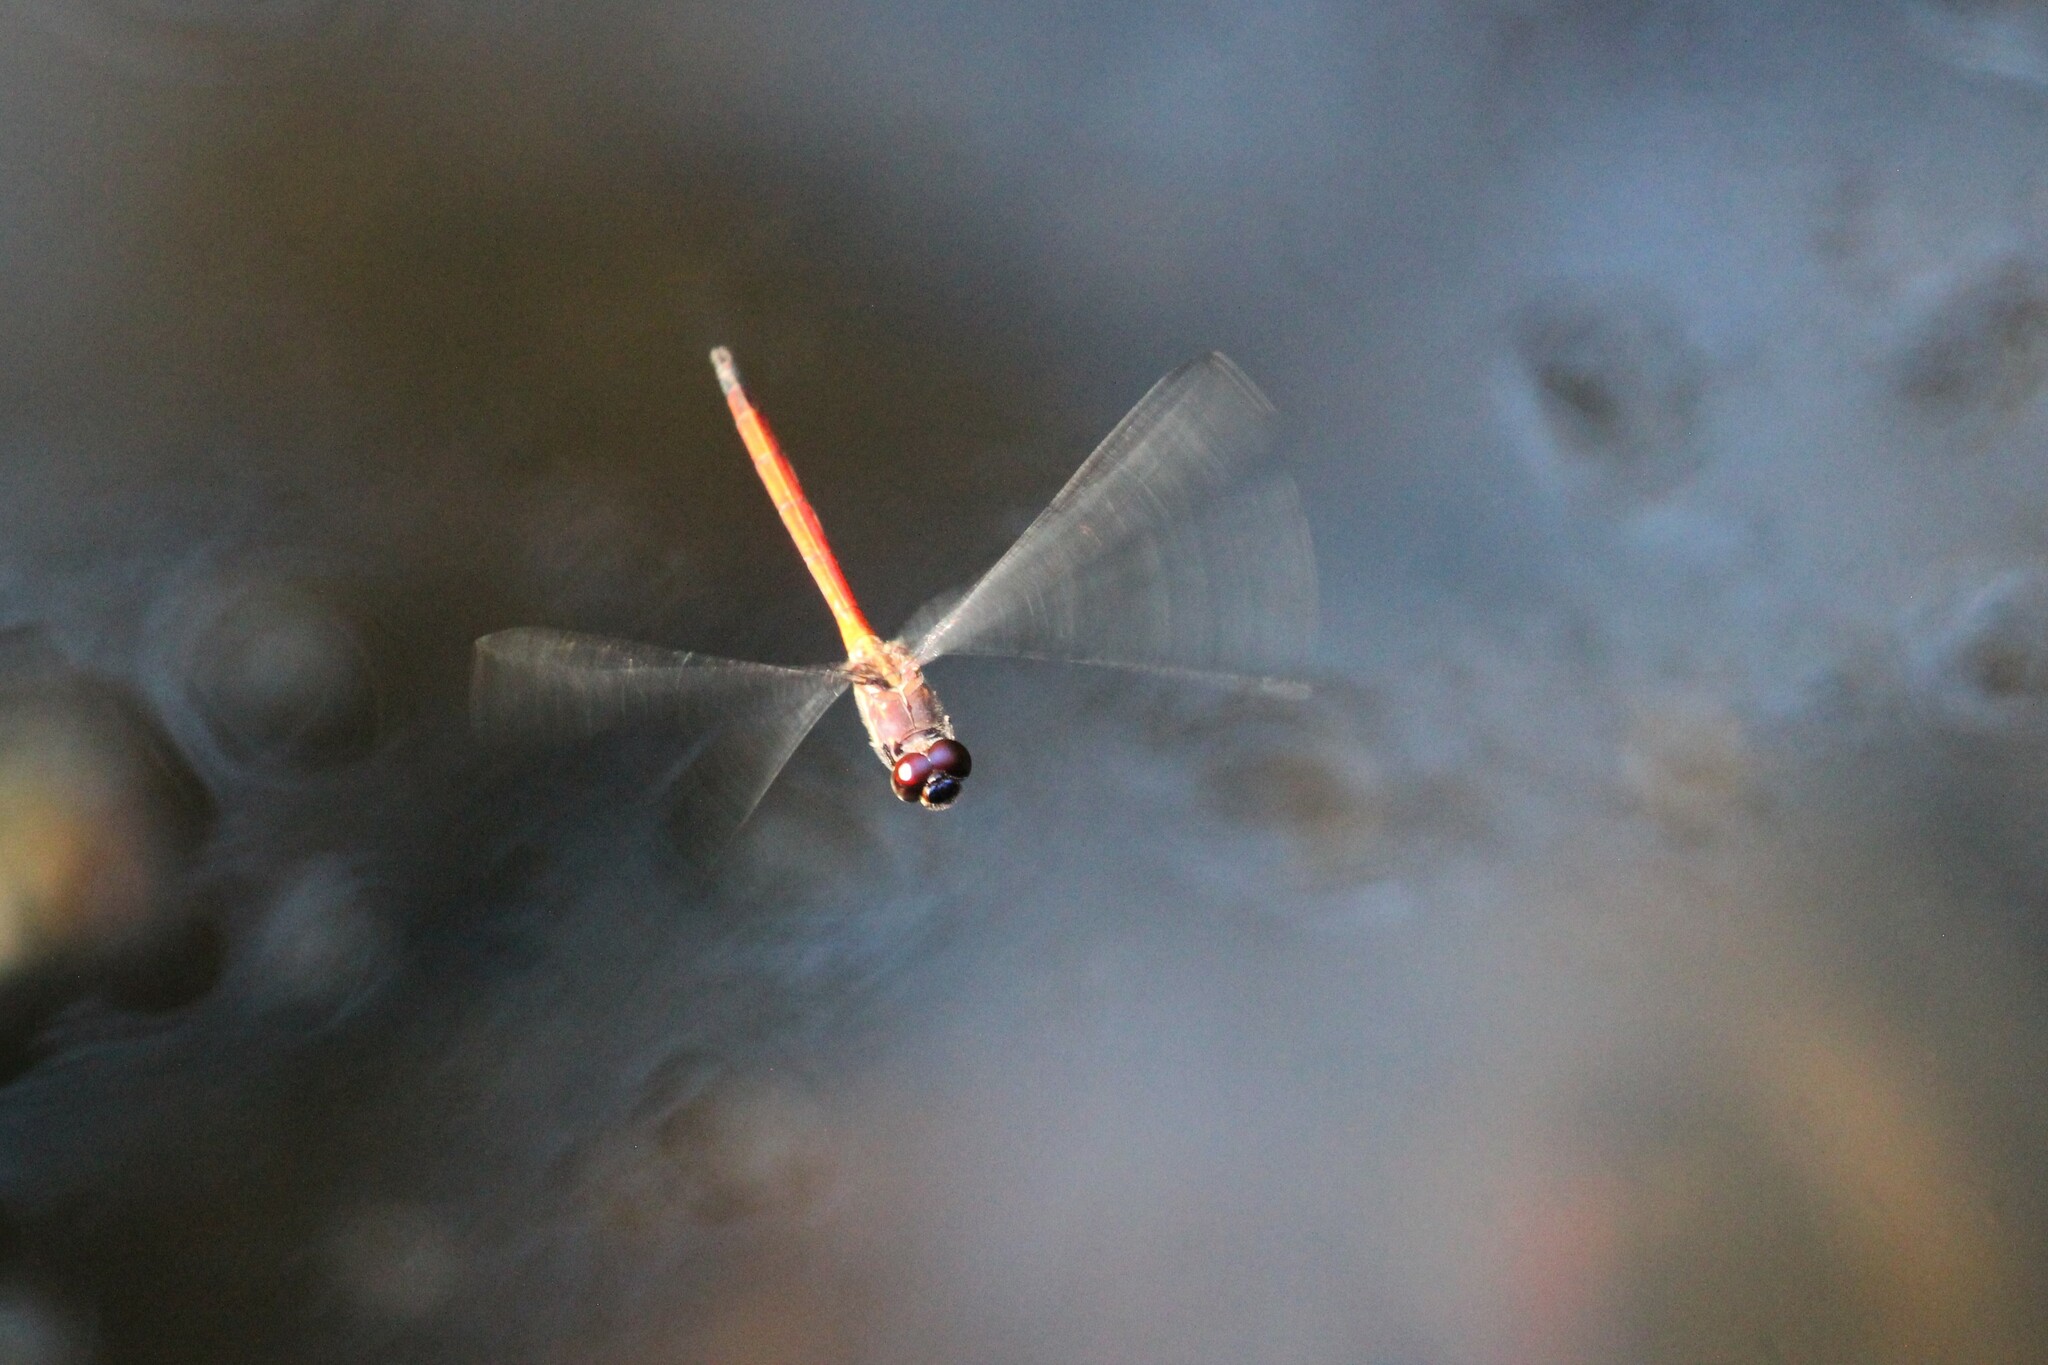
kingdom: Animalia
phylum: Arthropoda
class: Insecta
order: Odonata
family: Libellulidae
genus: Orthemis
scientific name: Orthemis levis
